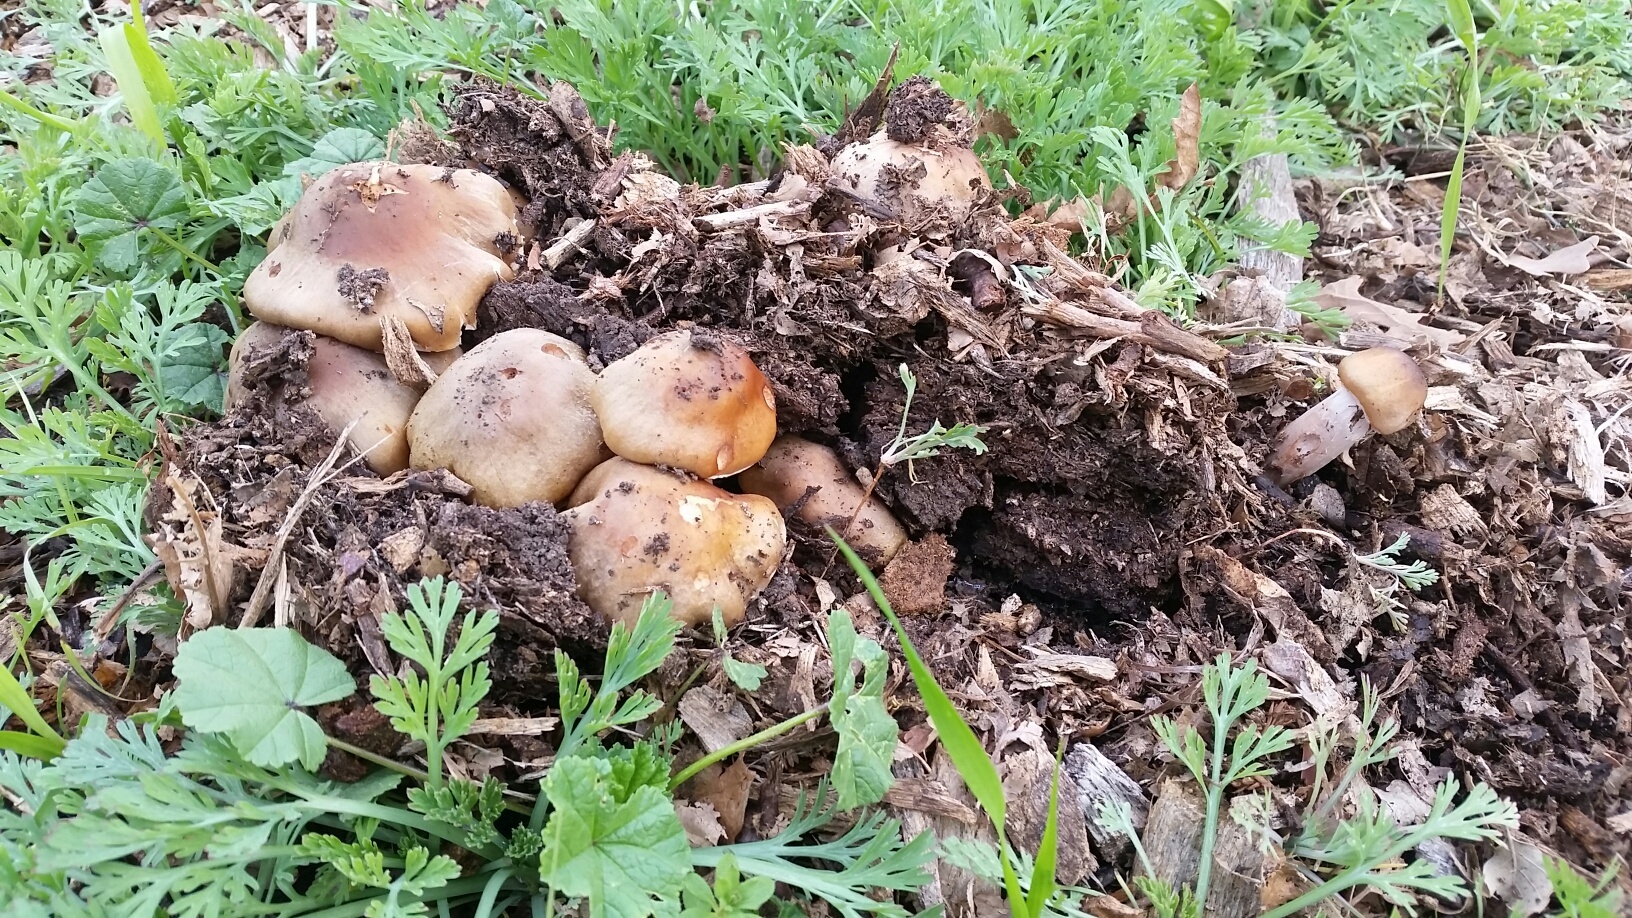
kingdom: Fungi
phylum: Basidiomycota
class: Agaricomycetes
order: Agaricales
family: Physalacriaceae
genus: Armillaria
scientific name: Armillaria mellea
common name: Honey fungus
